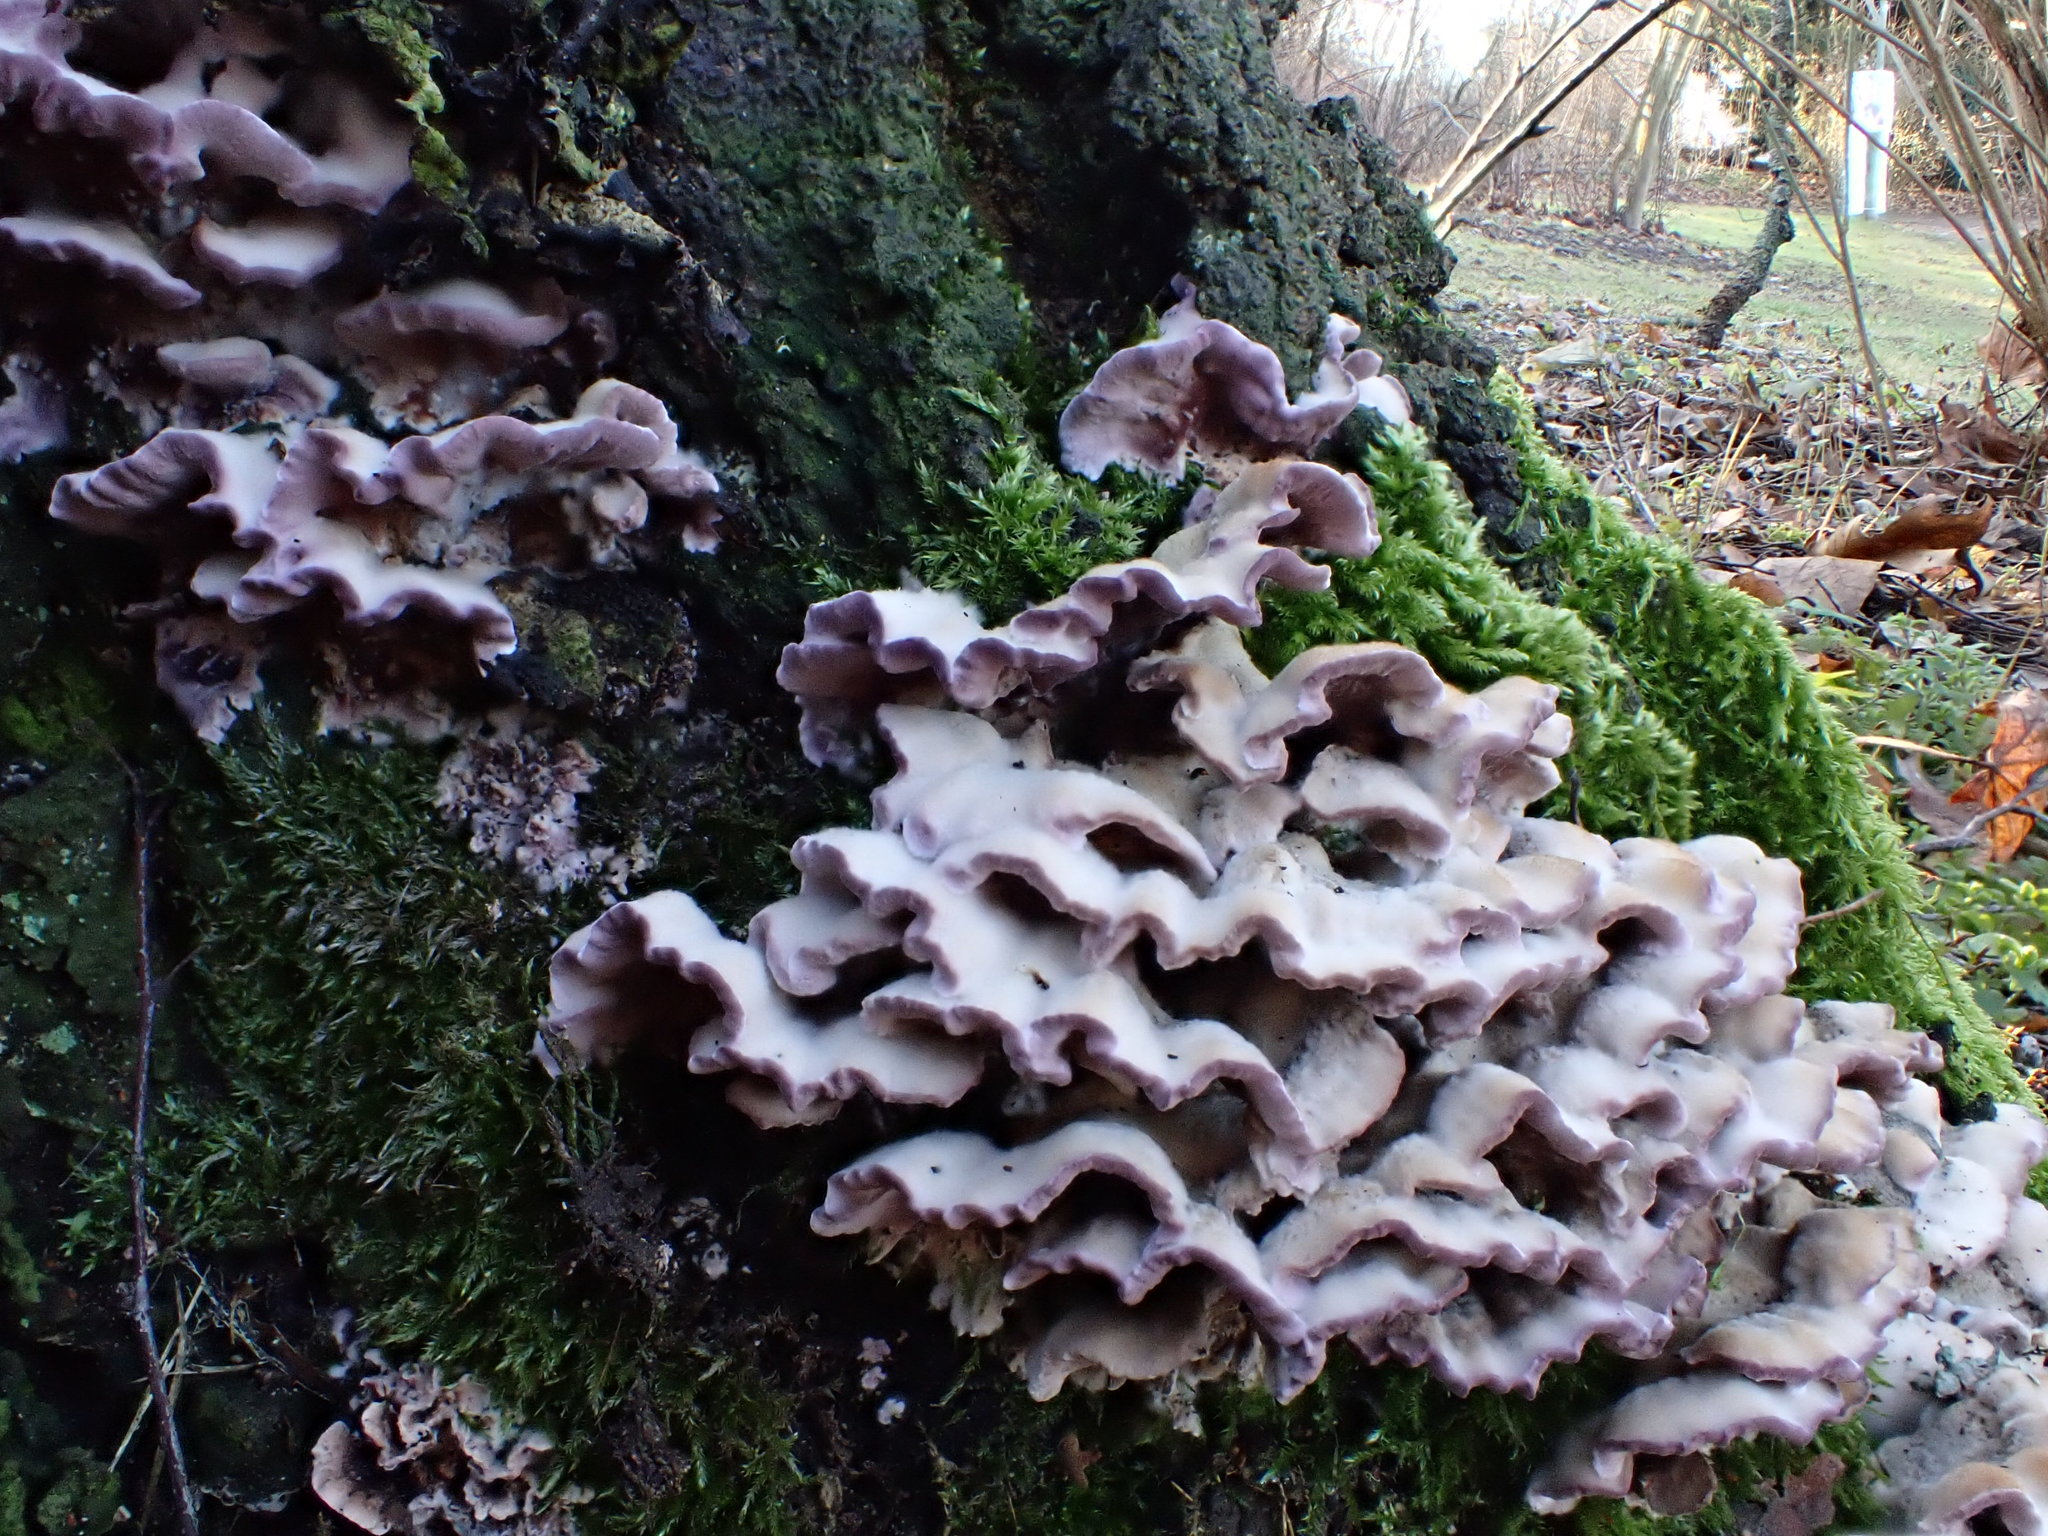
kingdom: Fungi
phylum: Basidiomycota
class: Agaricomycetes
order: Agaricales
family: Cyphellaceae
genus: Chondrostereum
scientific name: Chondrostereum purpureum
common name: Silver leaf disease
